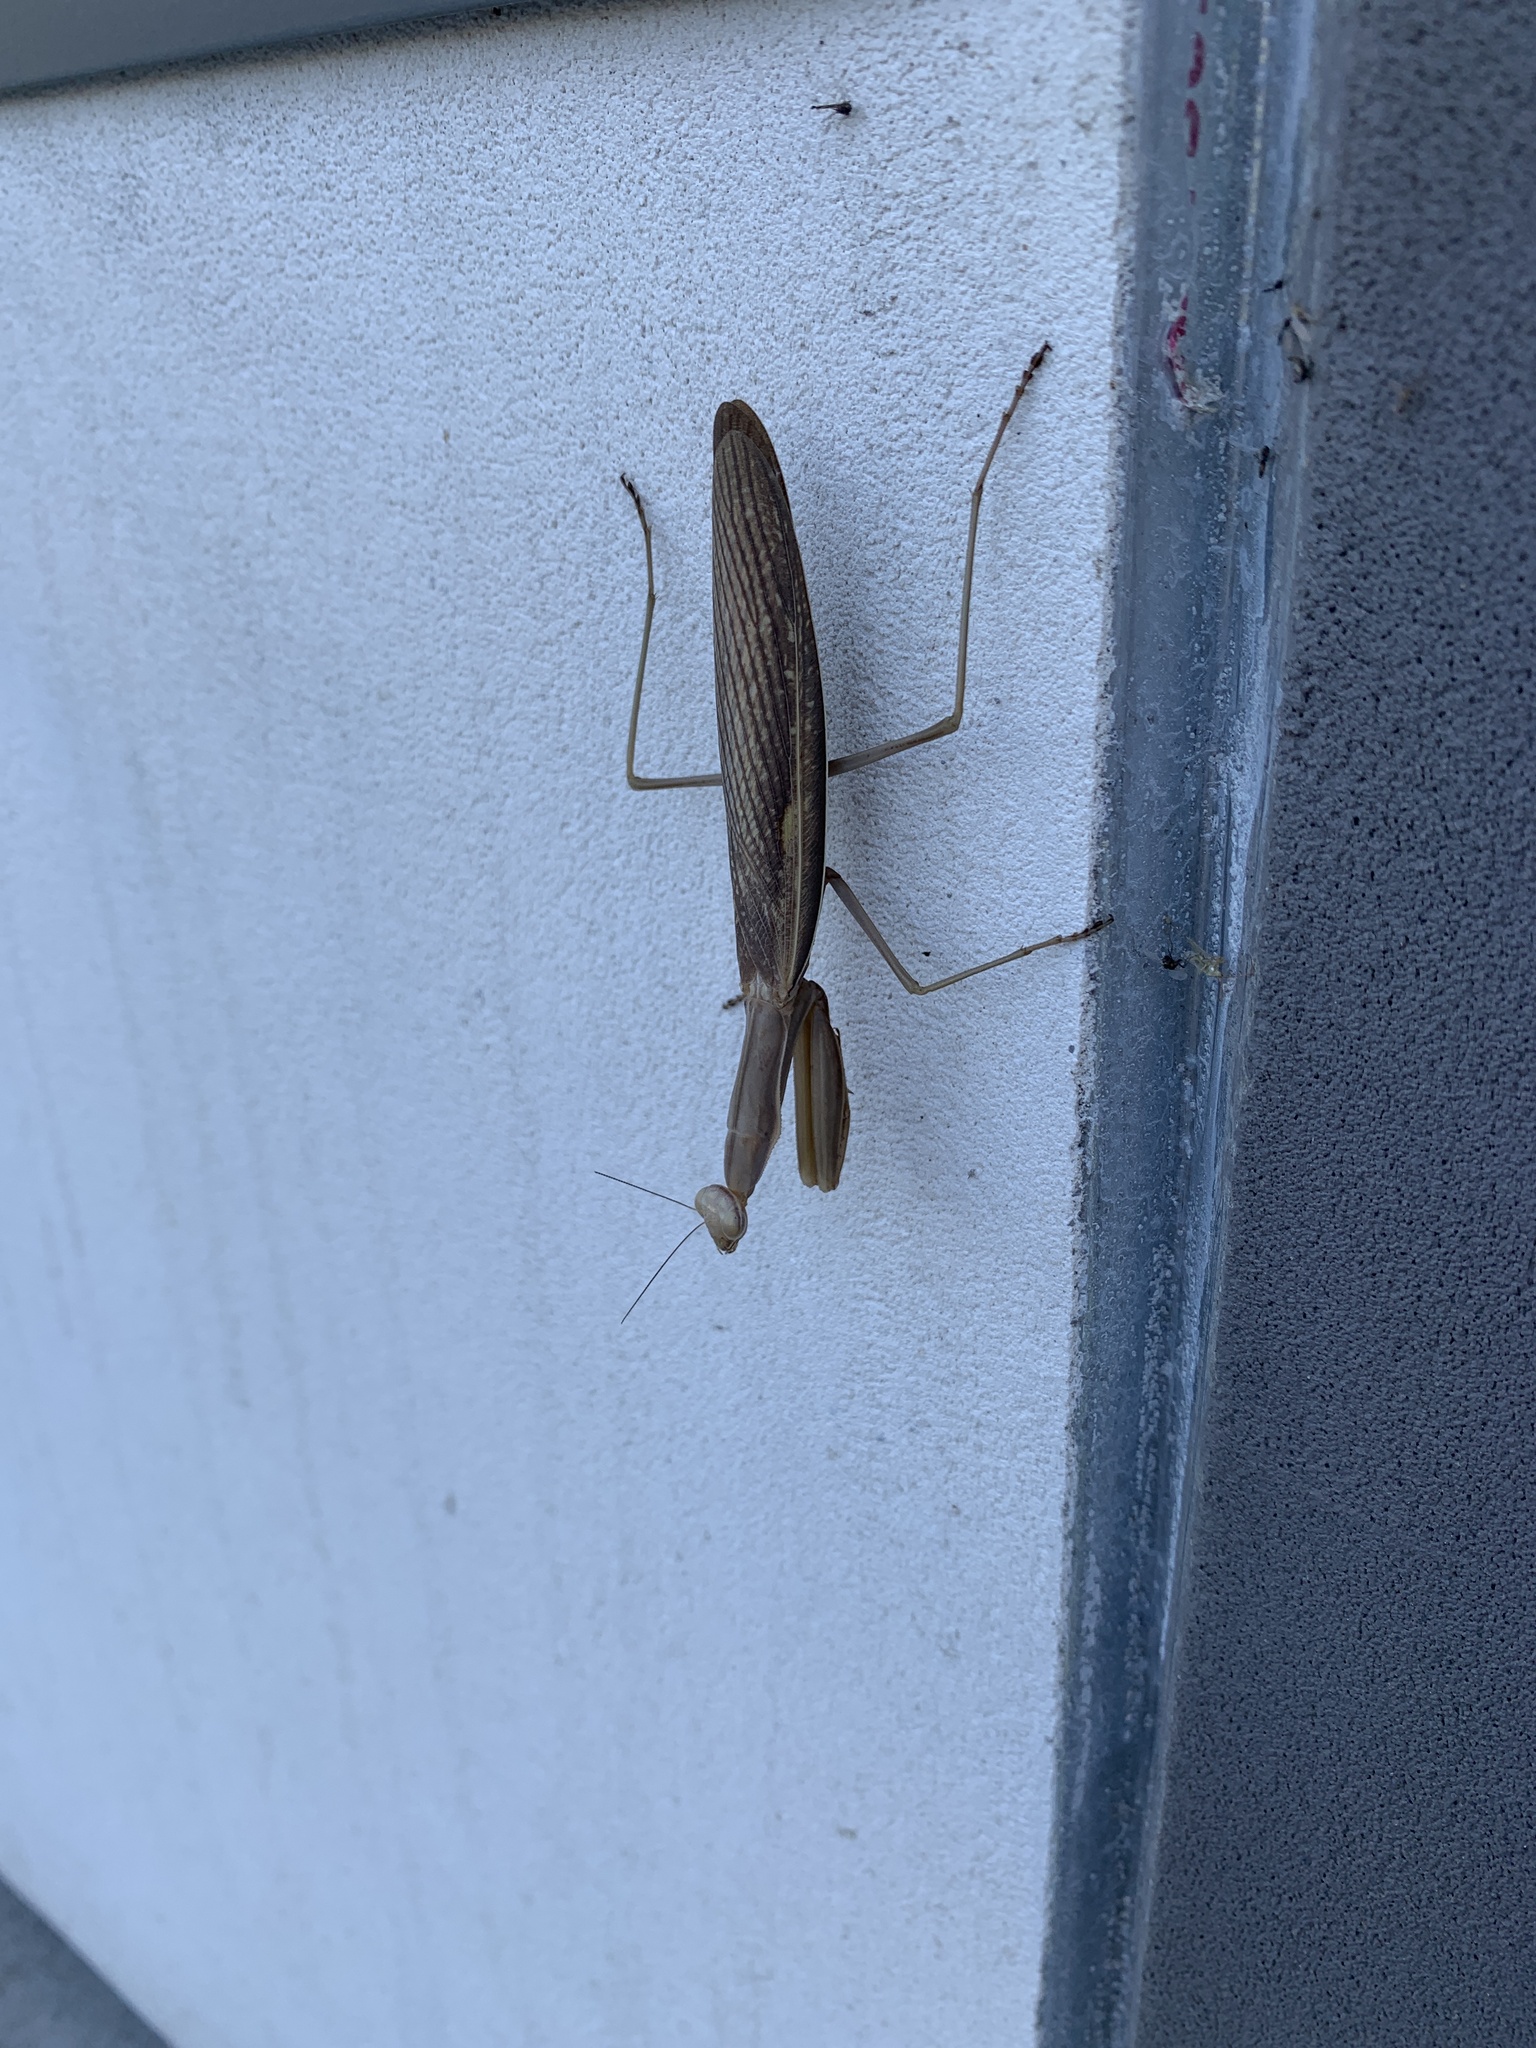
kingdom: Animalia
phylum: Arthropoda
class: Insecta
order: Mantodea
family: Mantidae
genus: Mantis
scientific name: Mantis religiosa
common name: Praying mantis
